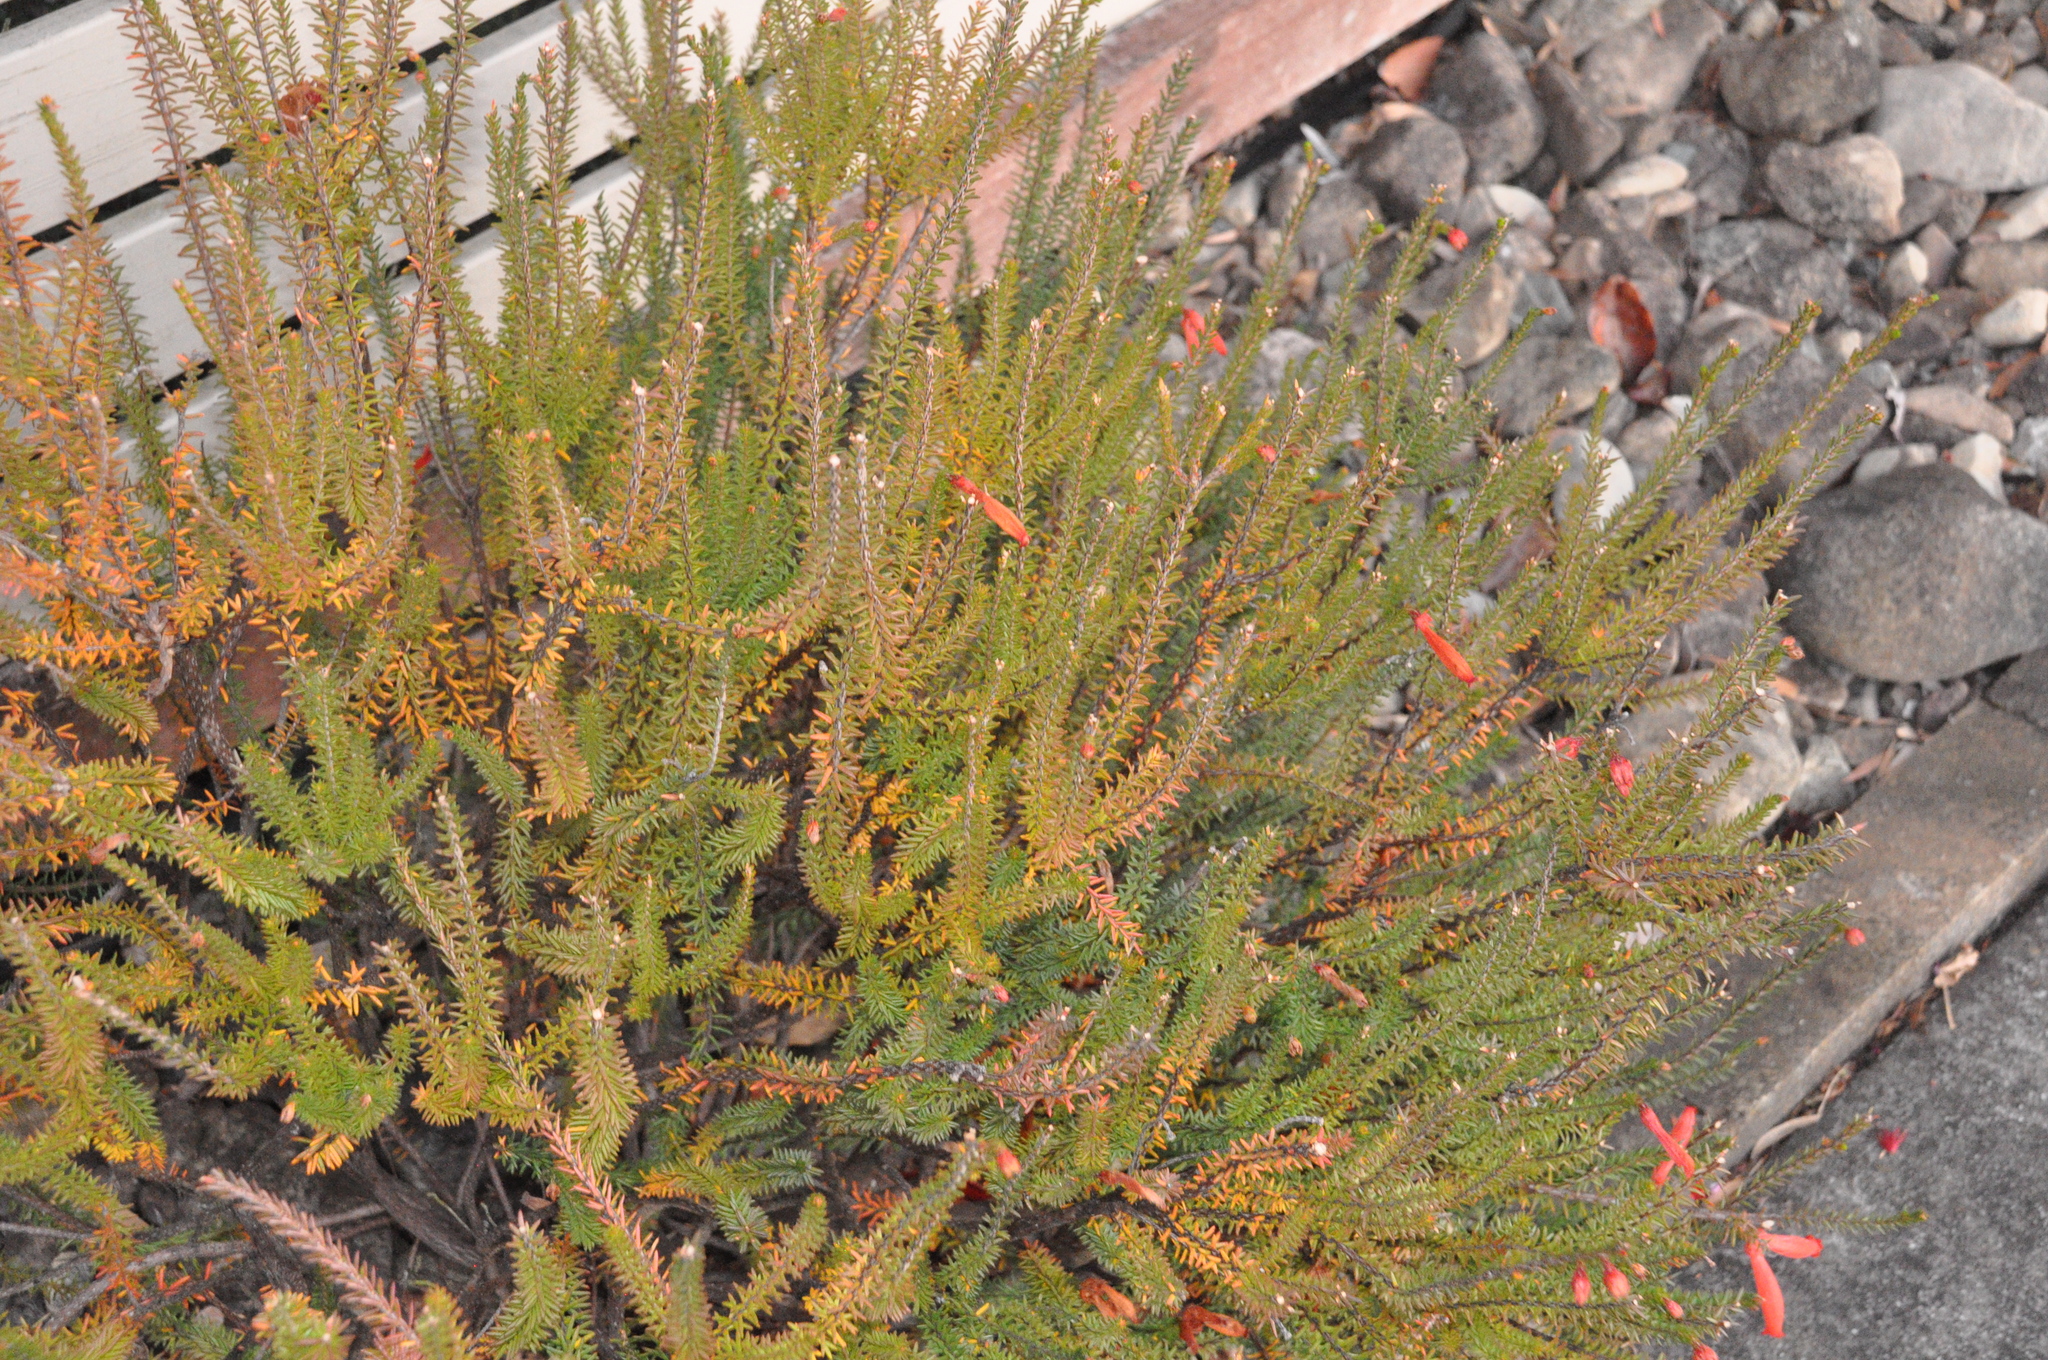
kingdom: Plantae
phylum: Tracheophyta
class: Magnoliopsida
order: Ericales
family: Ericaceae
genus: Erica
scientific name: Erica cerinthoides
